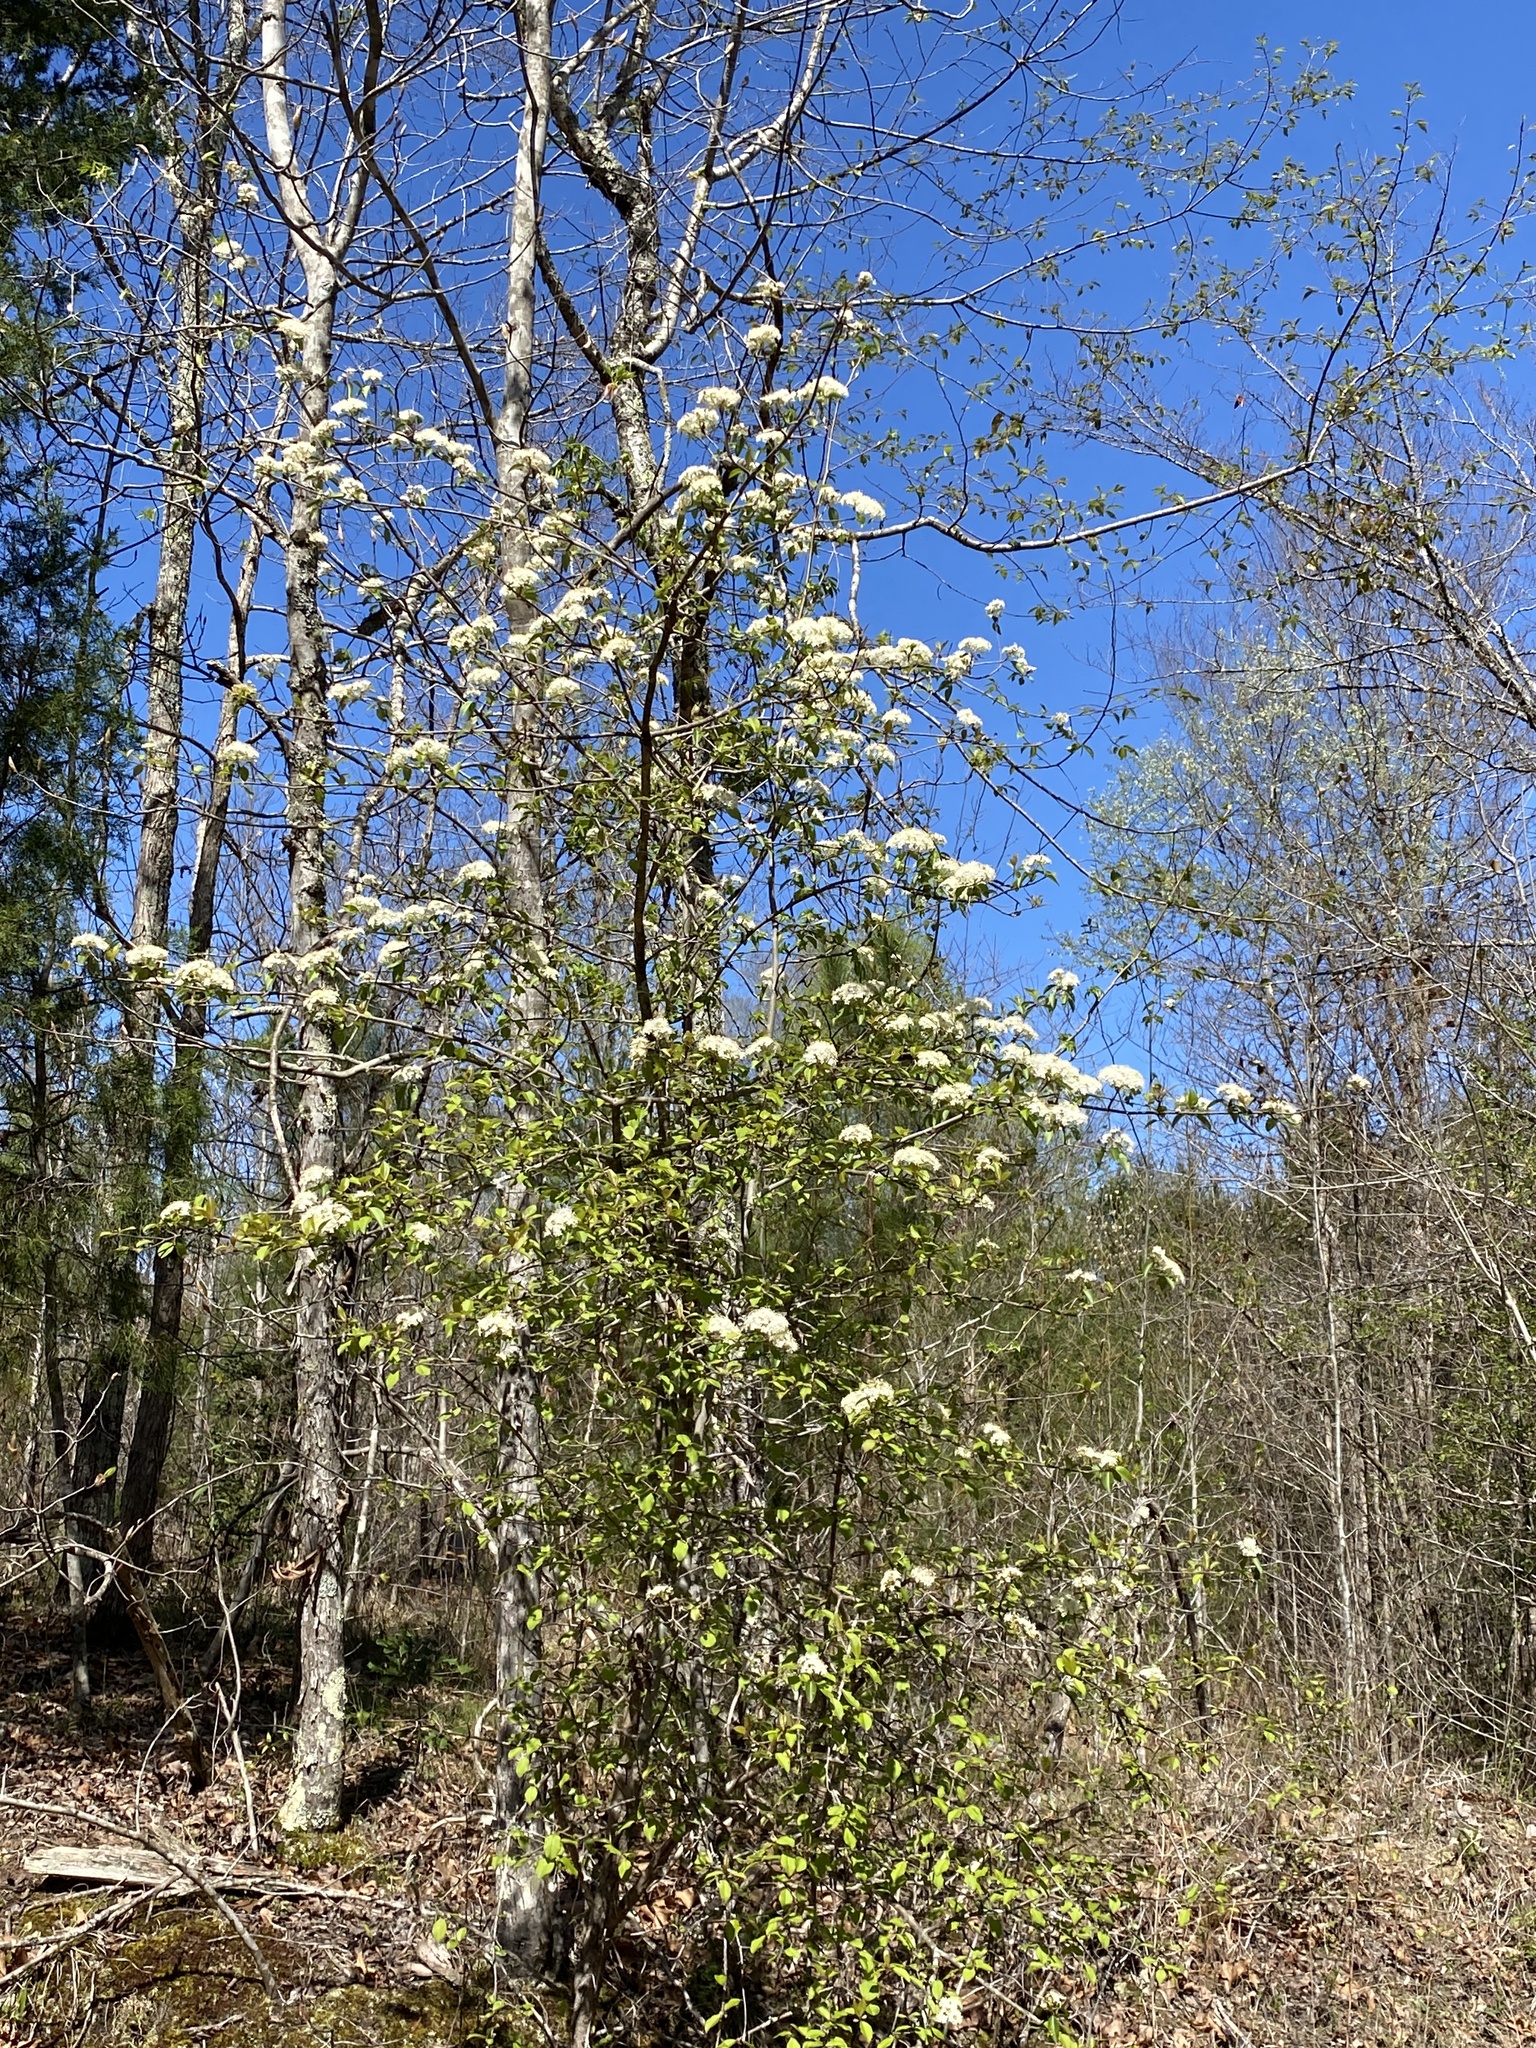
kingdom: Plantae
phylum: Tracheophyta
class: Magnoliopsida
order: Dipsacales
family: Viburnaceae
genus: Viburnum
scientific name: Viburnum prunifolium
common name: Black haw
